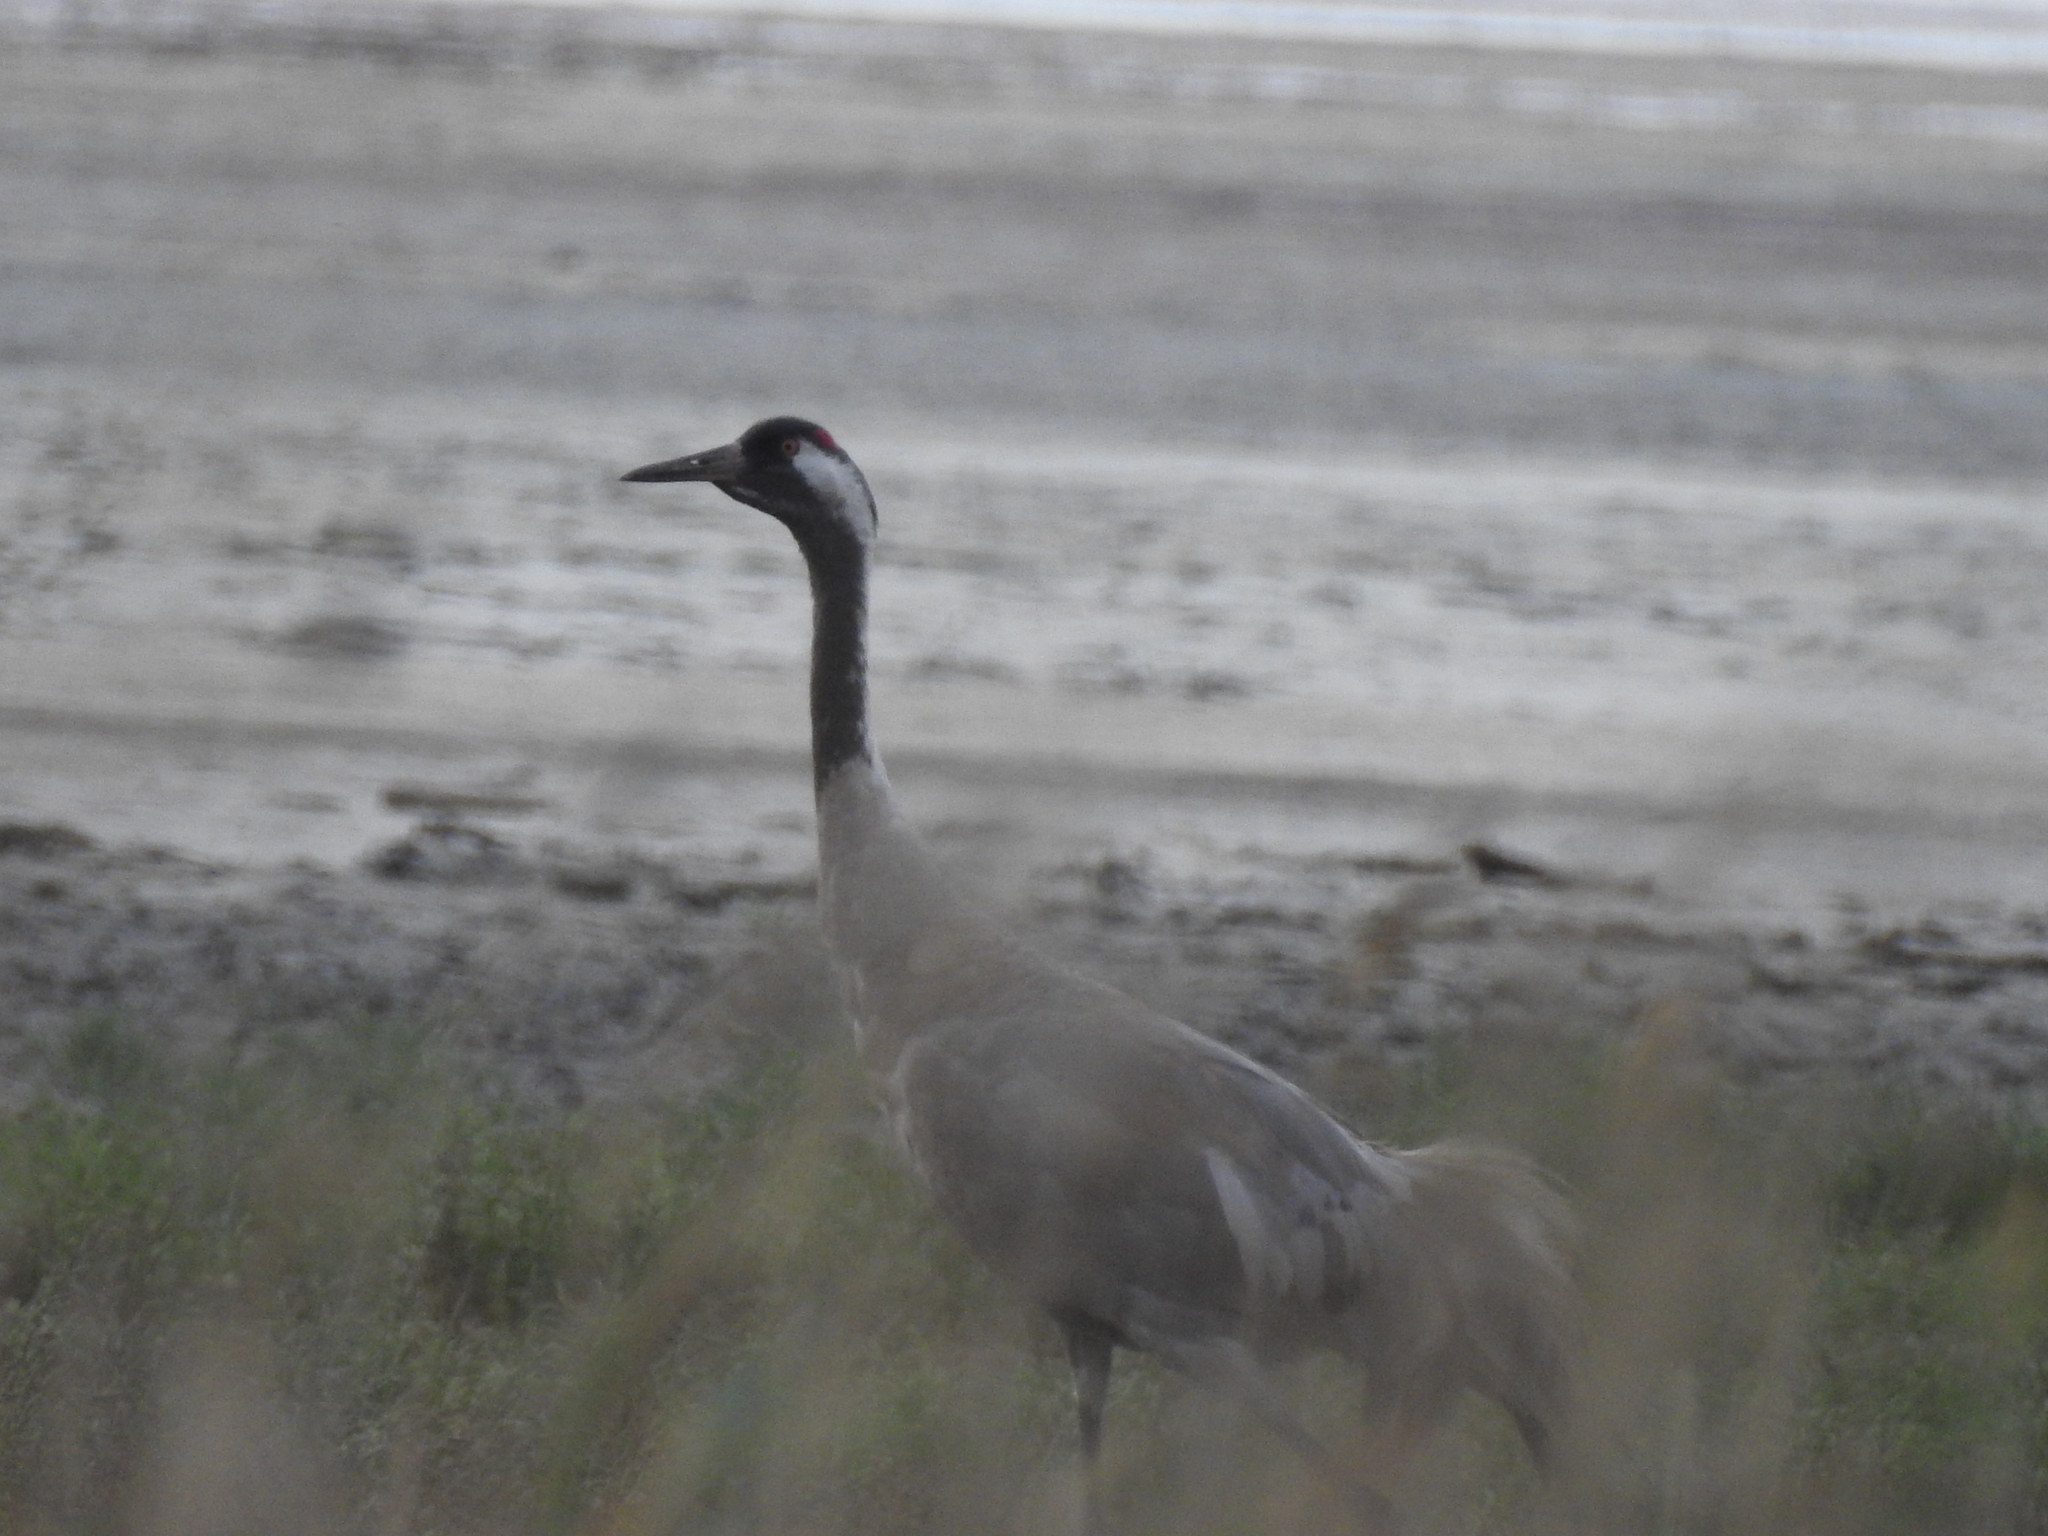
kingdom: Animalia
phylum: Chordata
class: Aves
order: Gruiformes
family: Gruidae
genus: Grus
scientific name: Grus grus
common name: Common crane
